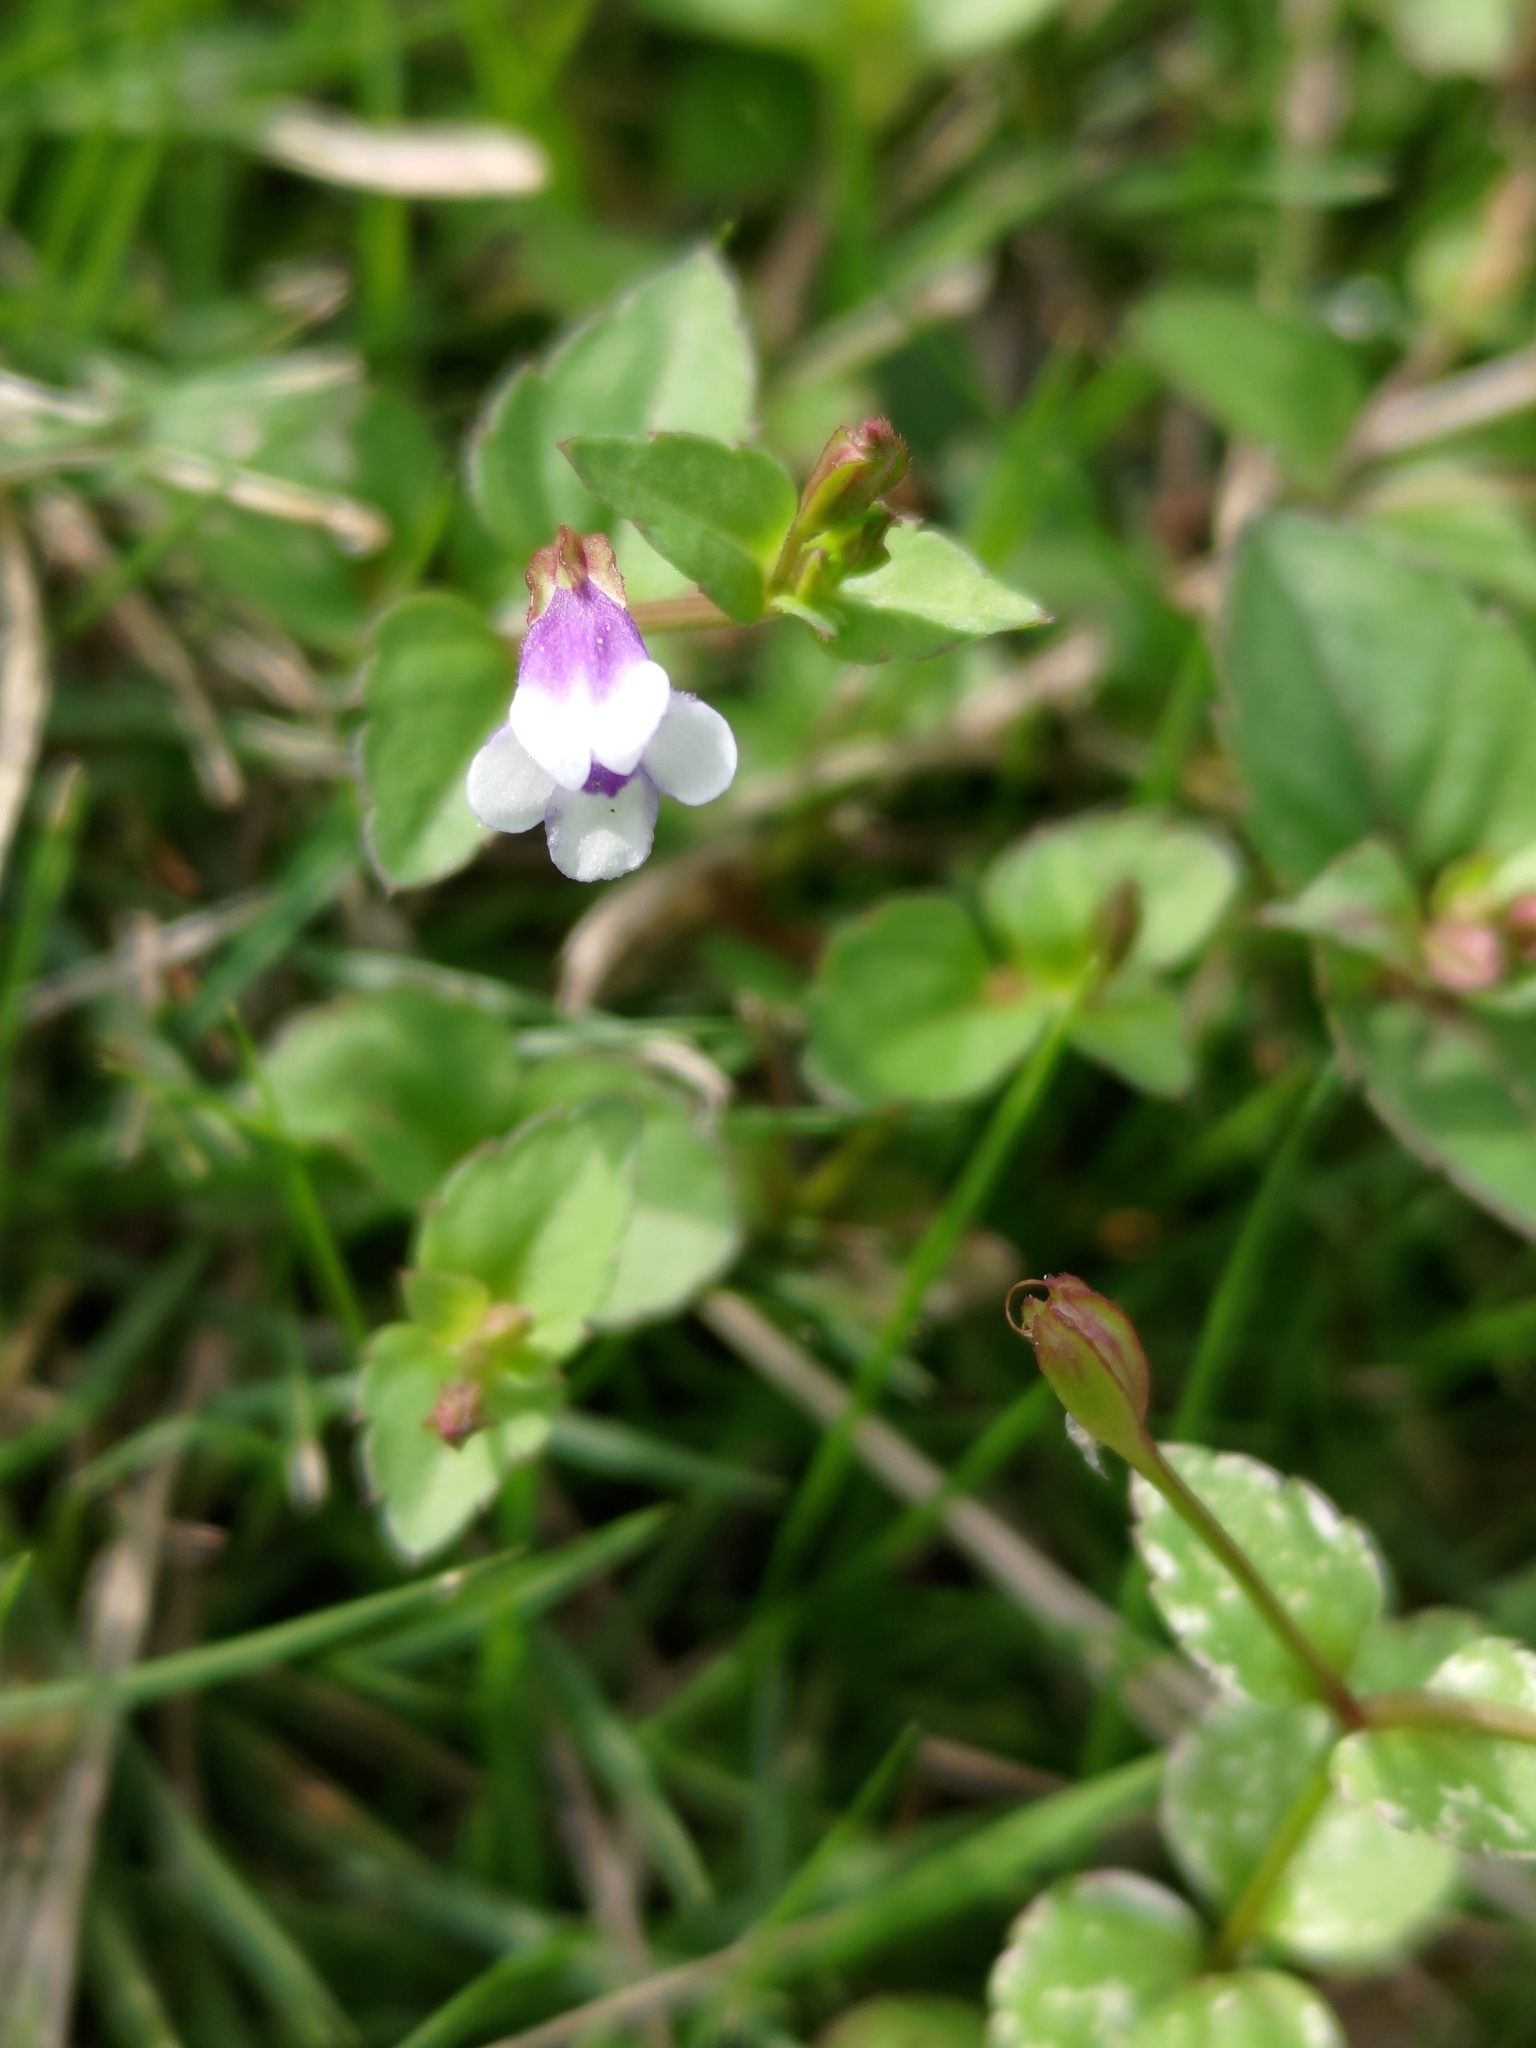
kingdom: Plantae
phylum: Tracheophyta
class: Magnoliopsida
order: Lamiales
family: Linderniaceae
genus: Torenia
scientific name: Torenia crustacea
